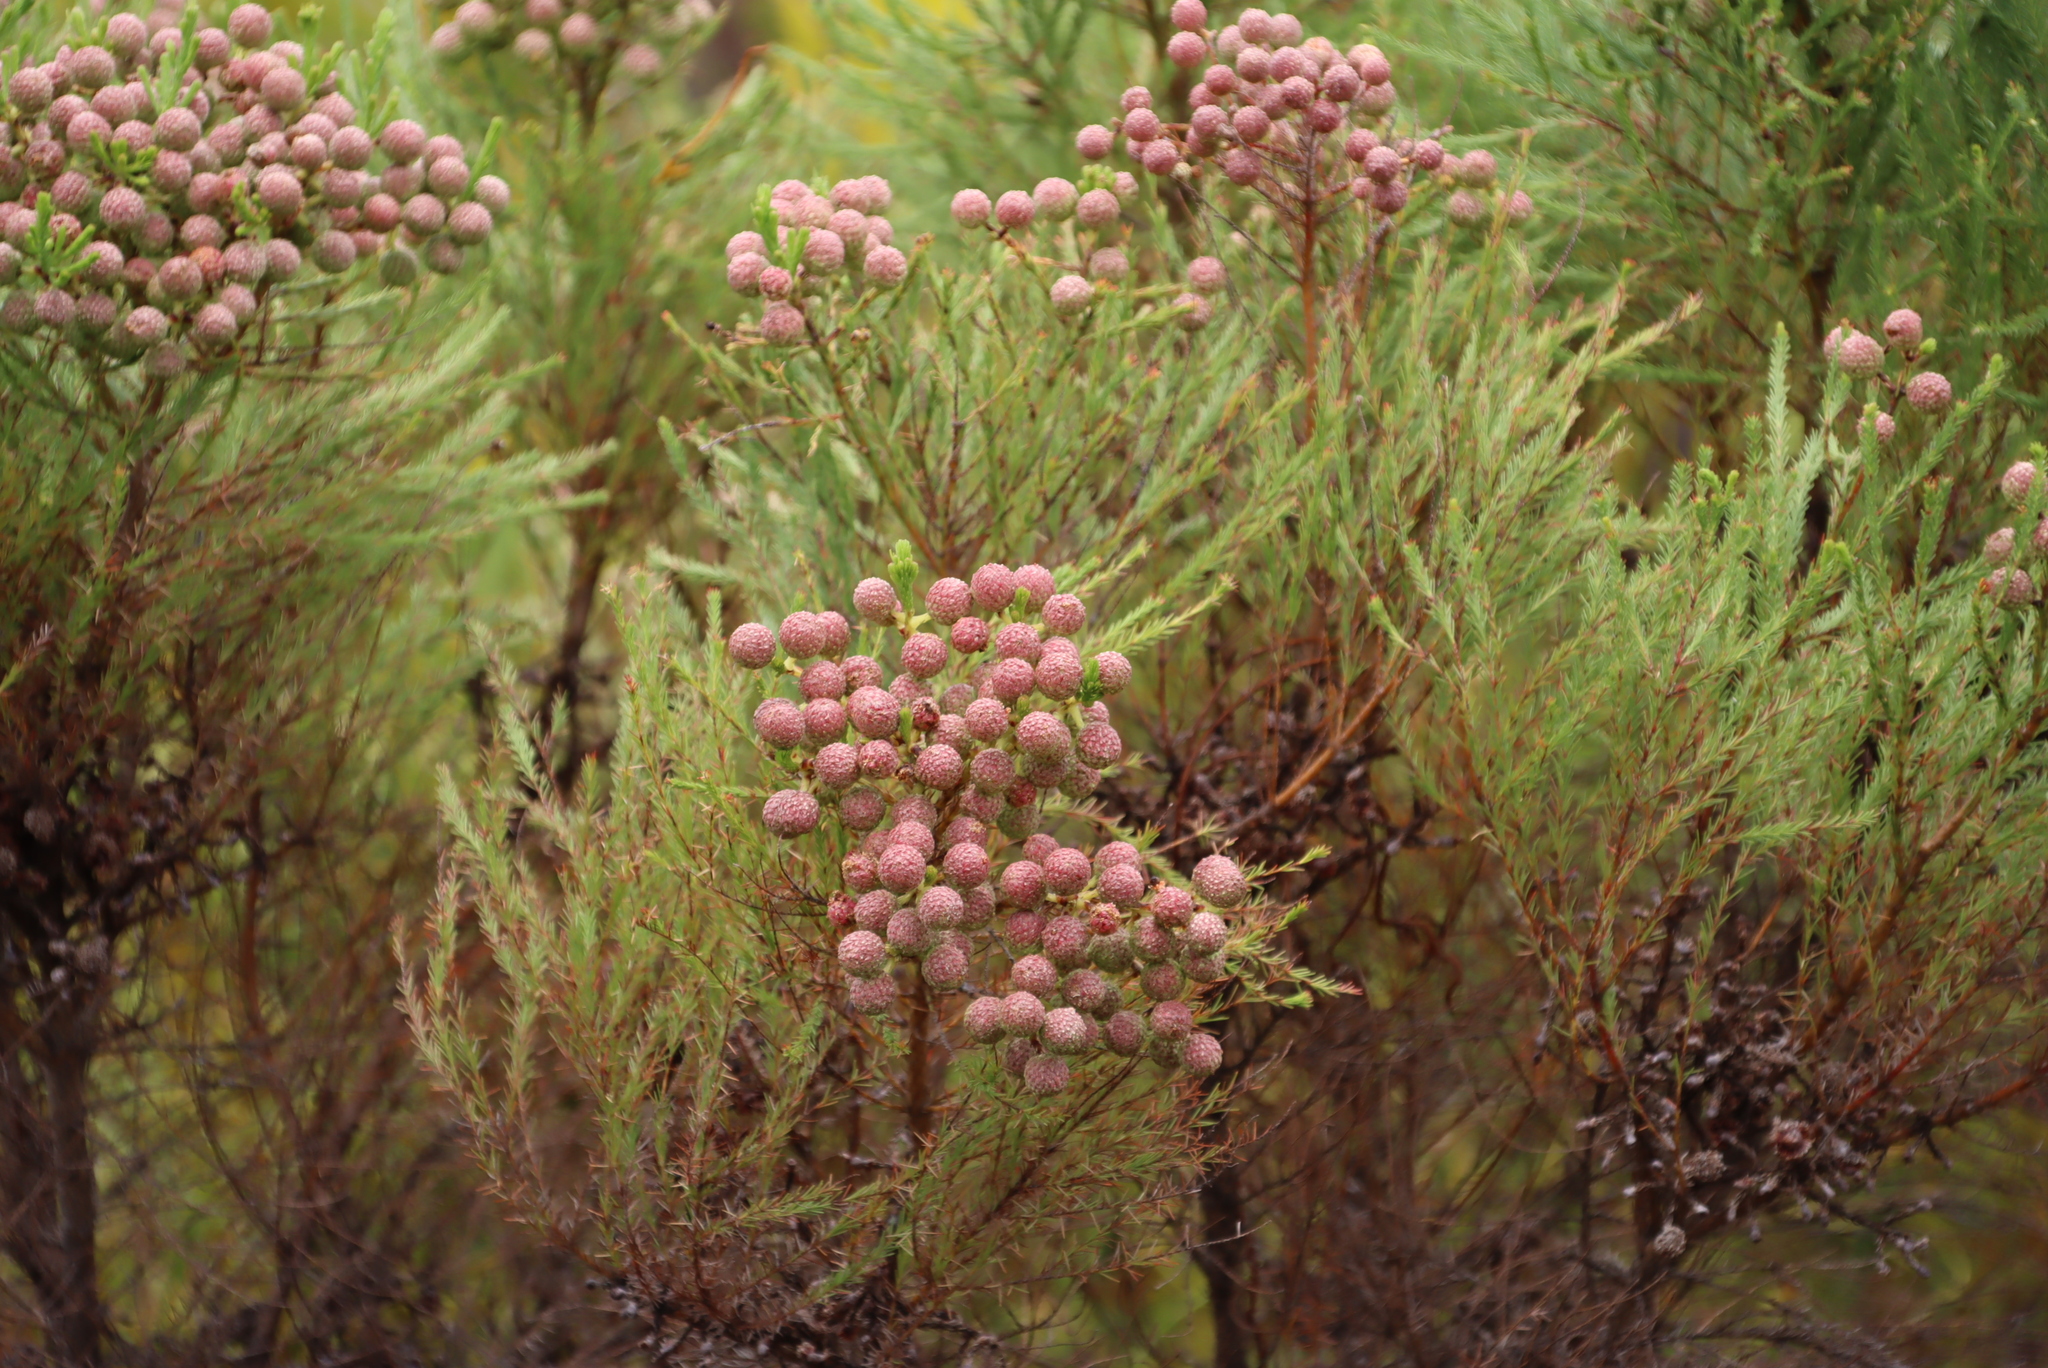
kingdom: Plantae
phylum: Tracheophyta
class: Magnoliopsida
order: Bruniales
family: Bruniaceae
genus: Berzelia
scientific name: Berzelia lanuginosa
